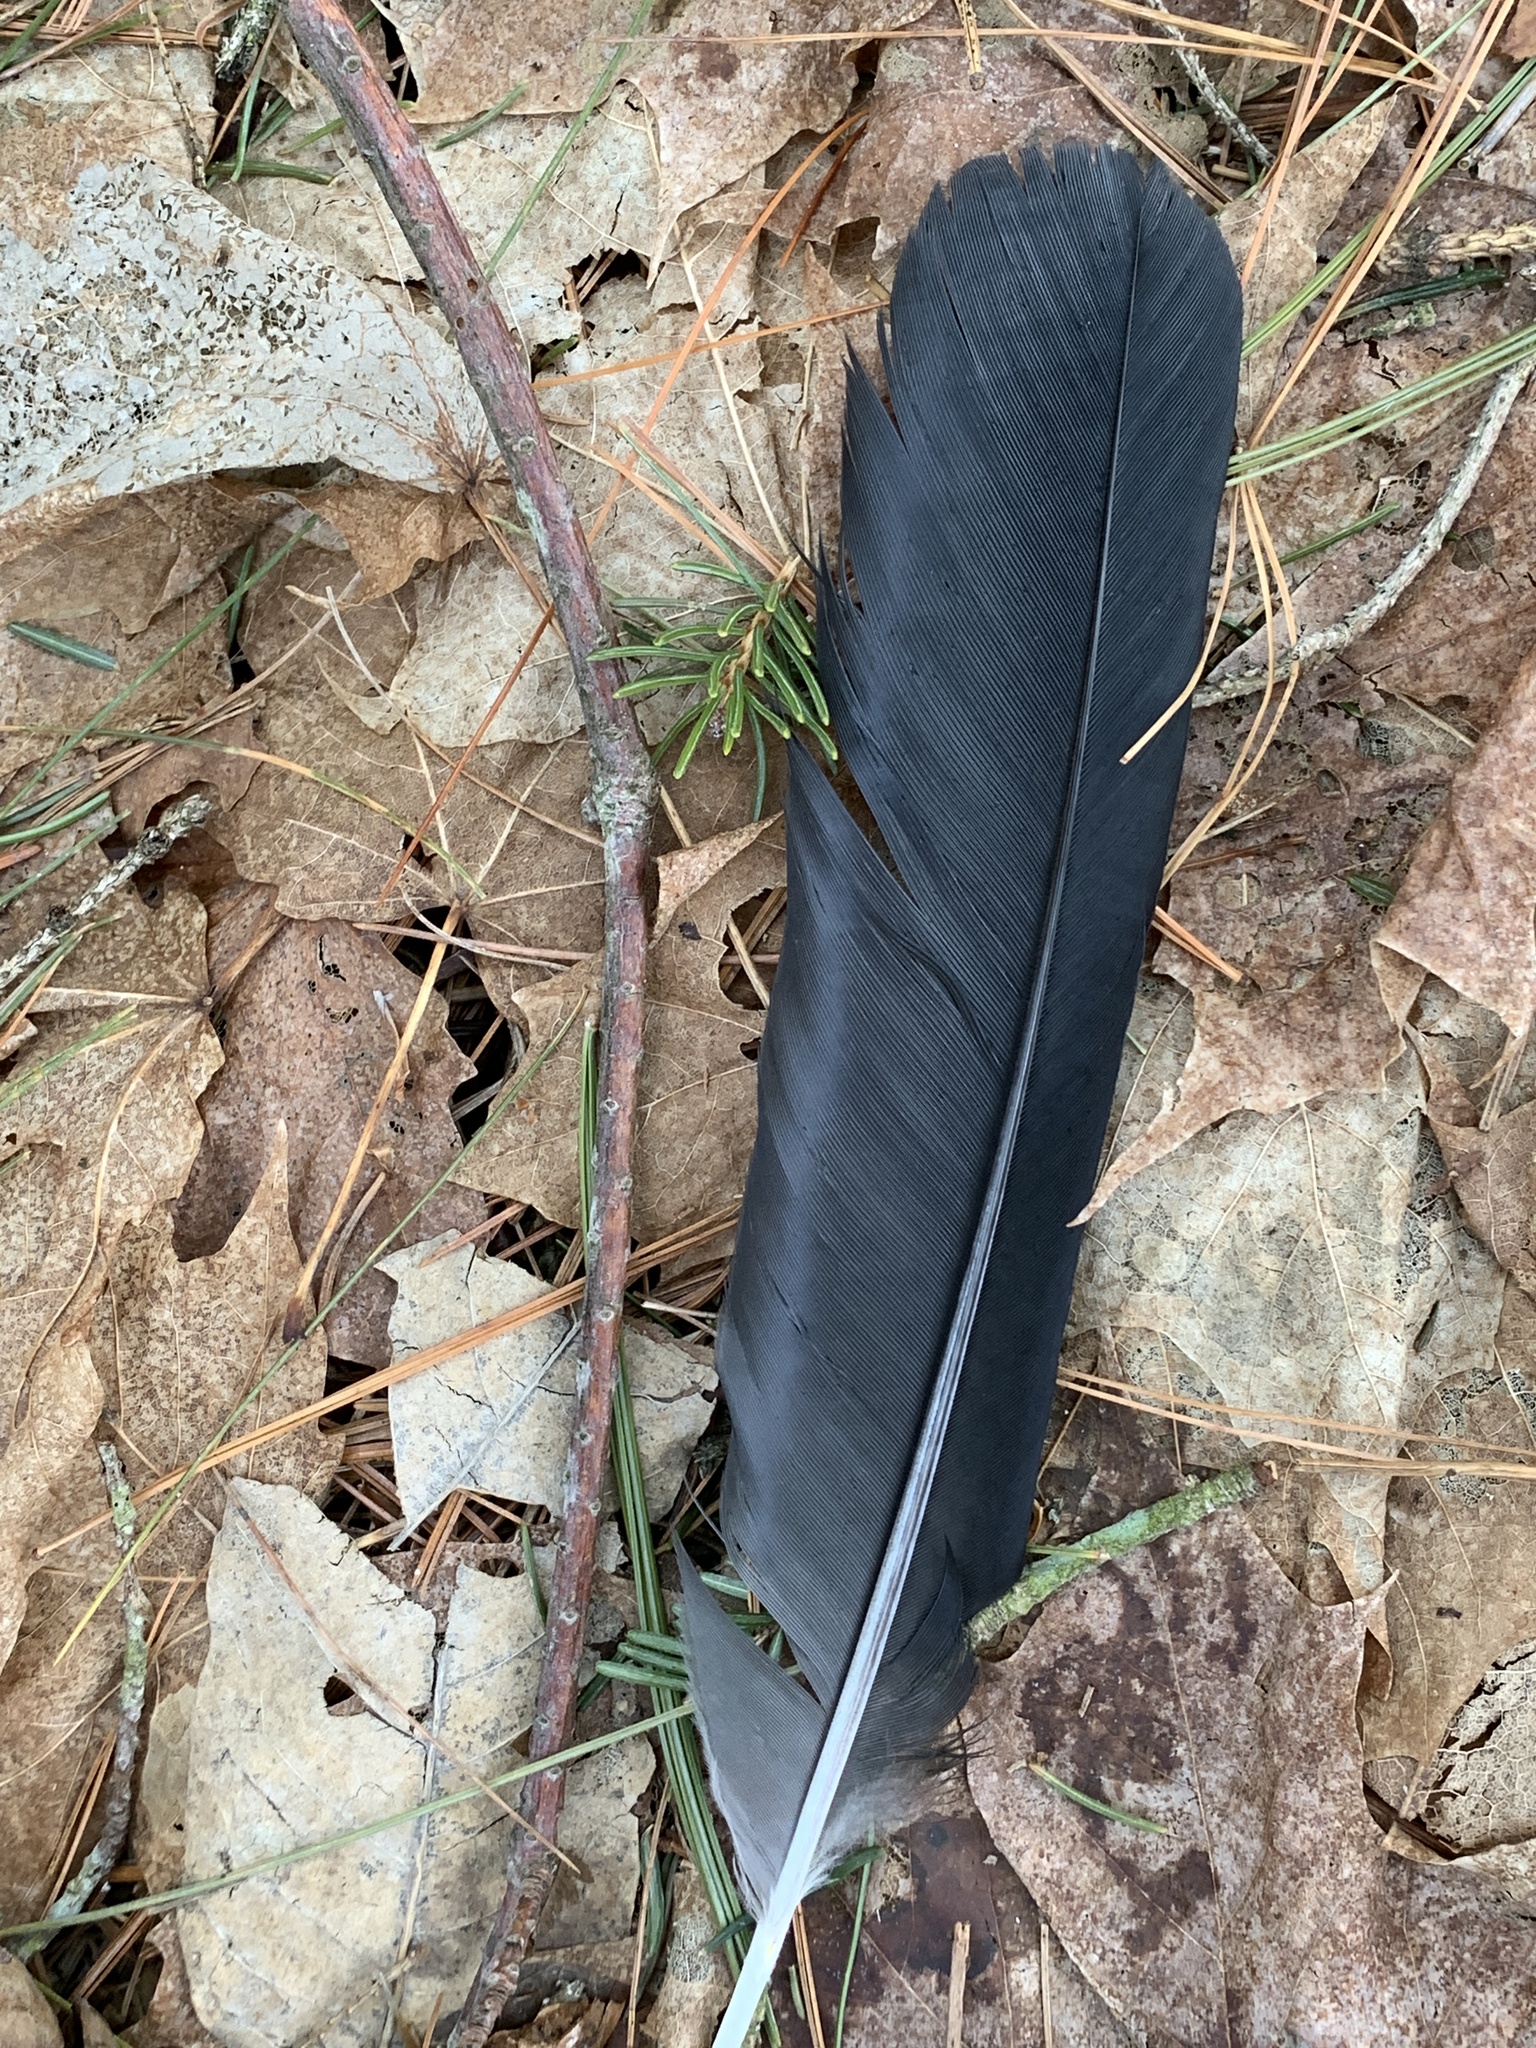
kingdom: Animalia
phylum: Chordata
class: Aves
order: Passeriformes
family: Corvidae
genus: Corvus
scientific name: Corvus brachyrhynchos
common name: American crow
